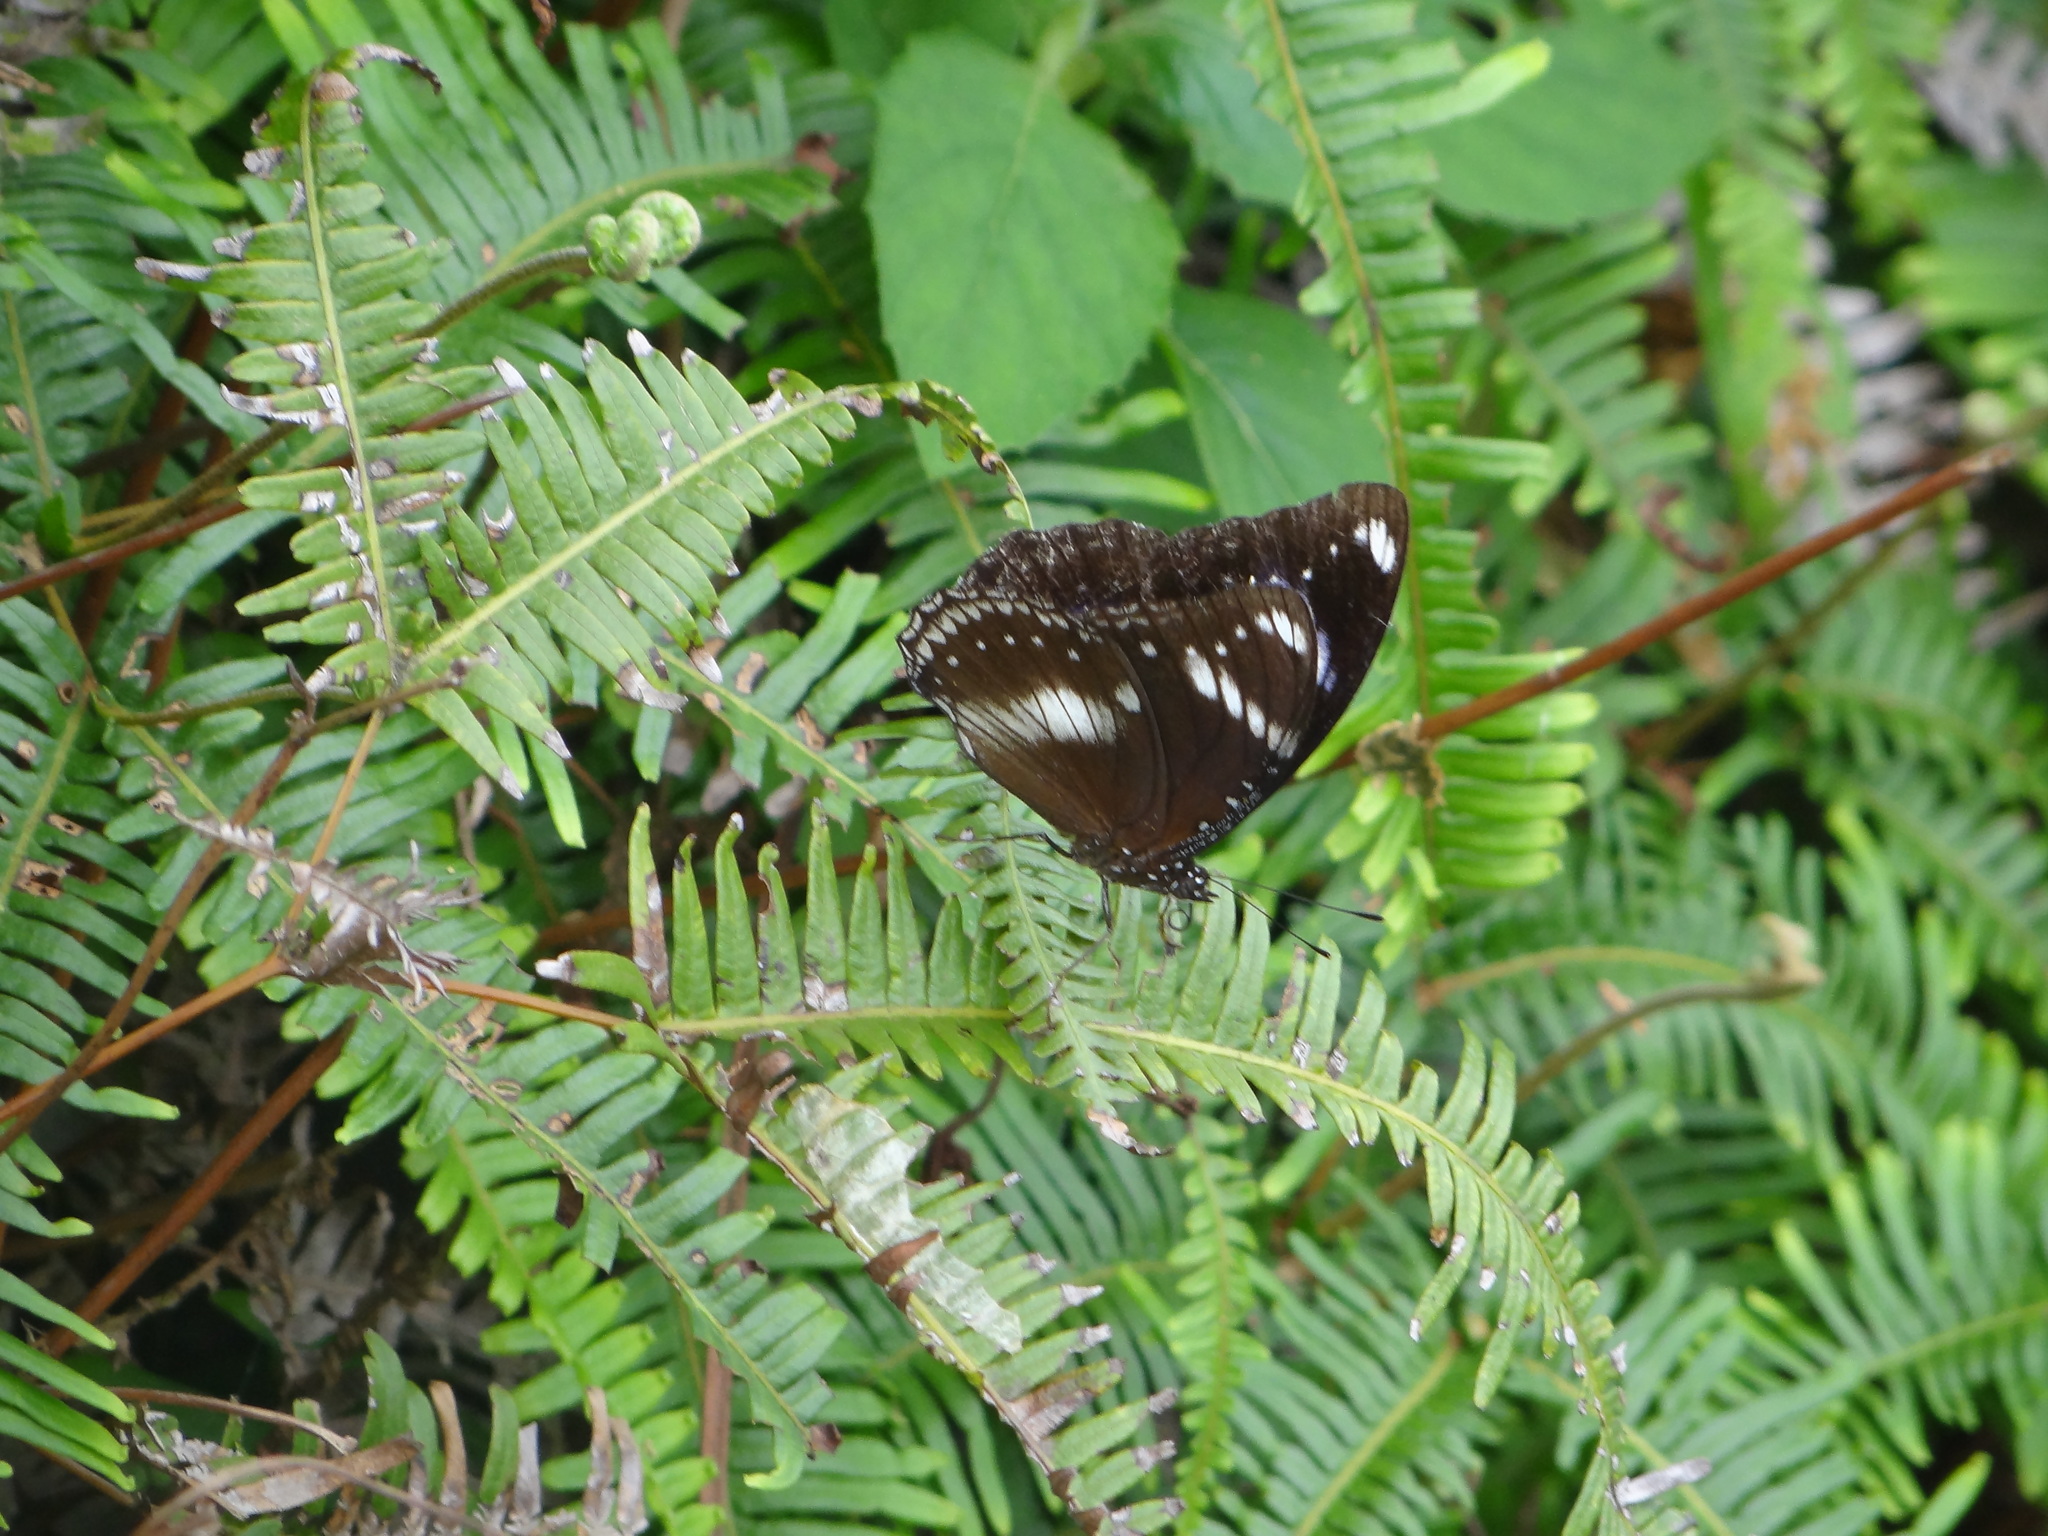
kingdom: Animalia
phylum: Arthropoda
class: Insecta
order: Lepidoptera
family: Nymphalidae
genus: Hypolimnas
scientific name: Hypolimnas bolina
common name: Great eggfly
